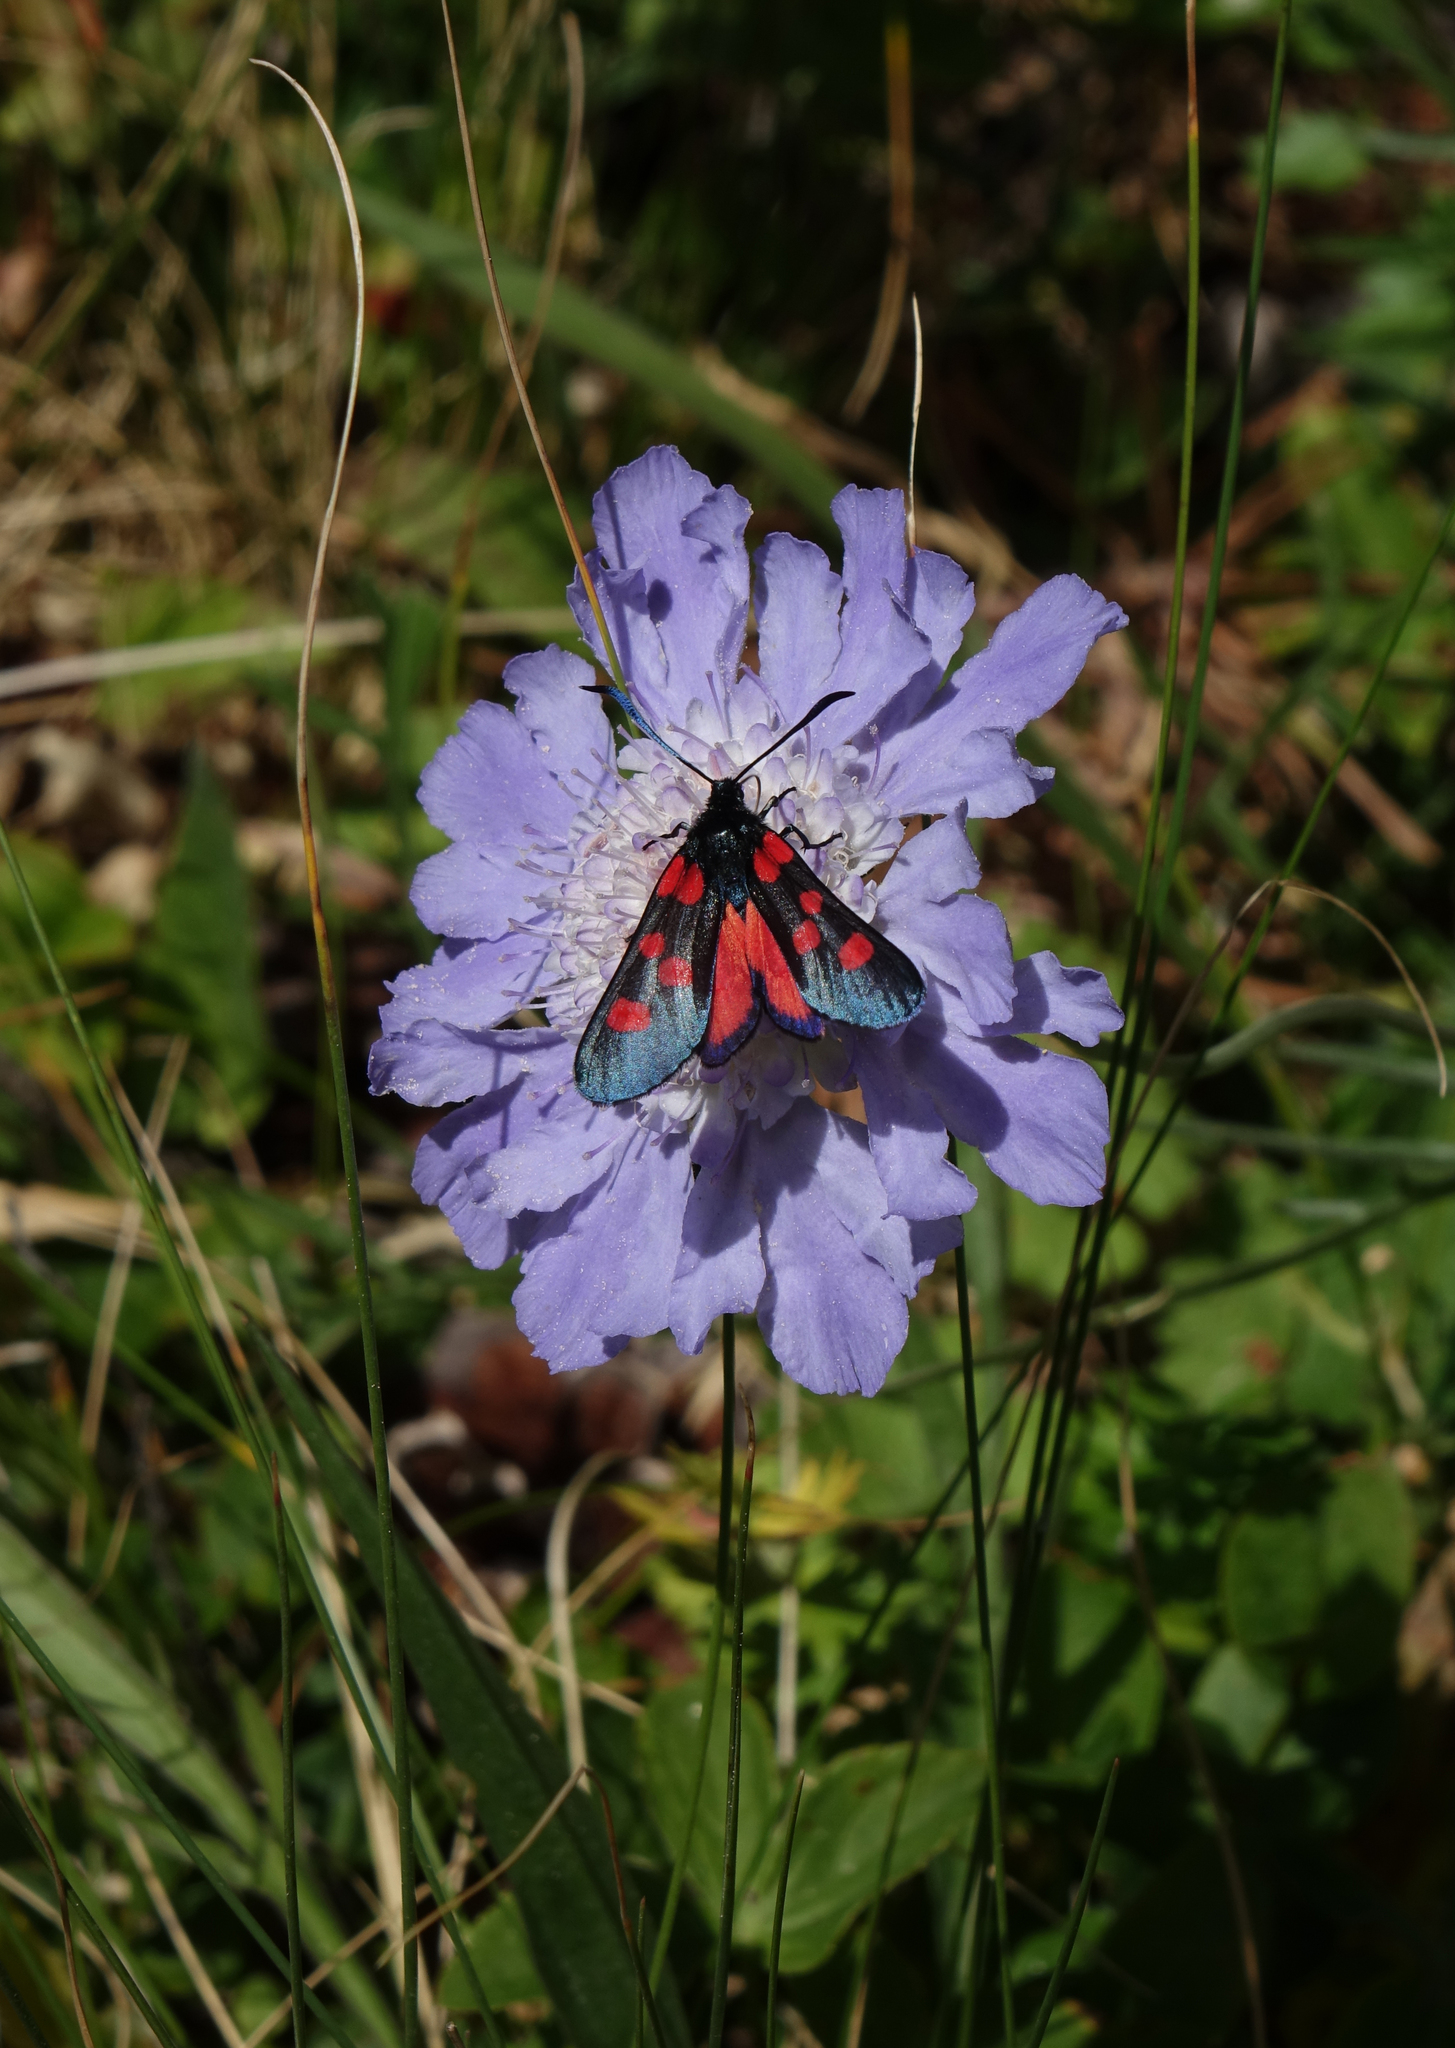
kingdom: Plantae
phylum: Tracheophyta
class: Magnoliopsida
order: Dipsacales
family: Caprifoliaceae
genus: Lomelosia
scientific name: Lomelosia caucasica
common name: Pincushion-flower
